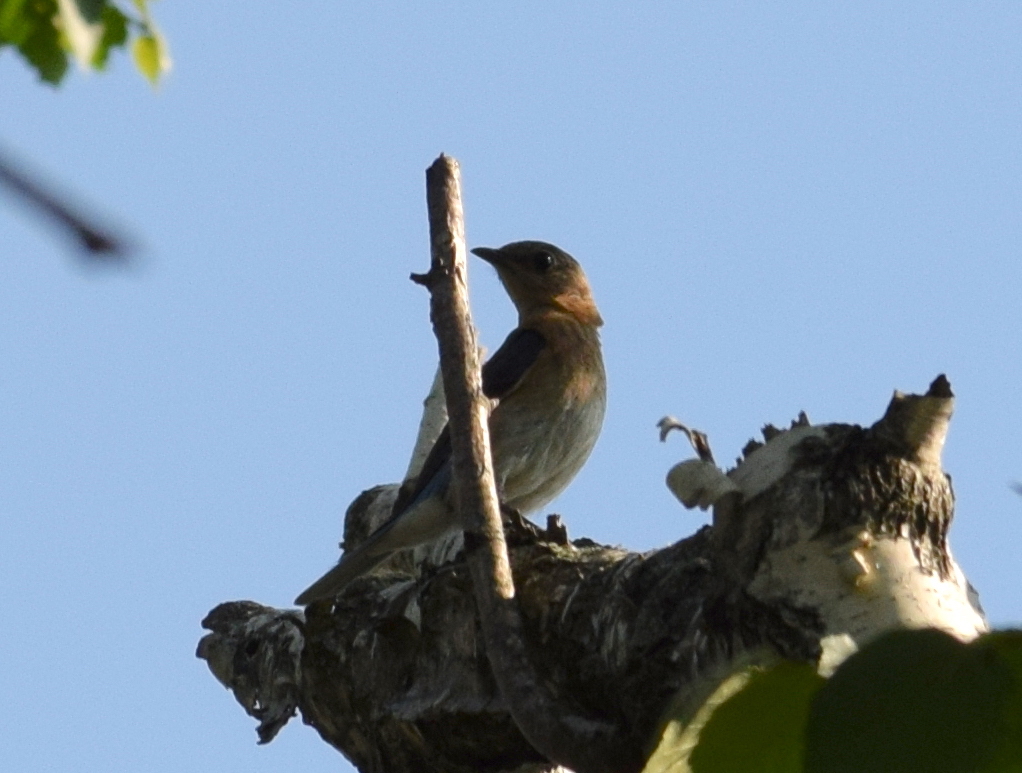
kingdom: Animalia
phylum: Chordata
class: Aves
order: Passeriformes
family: Turdidae
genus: Sialia
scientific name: Sialia sialis
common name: Eastern bluebird
